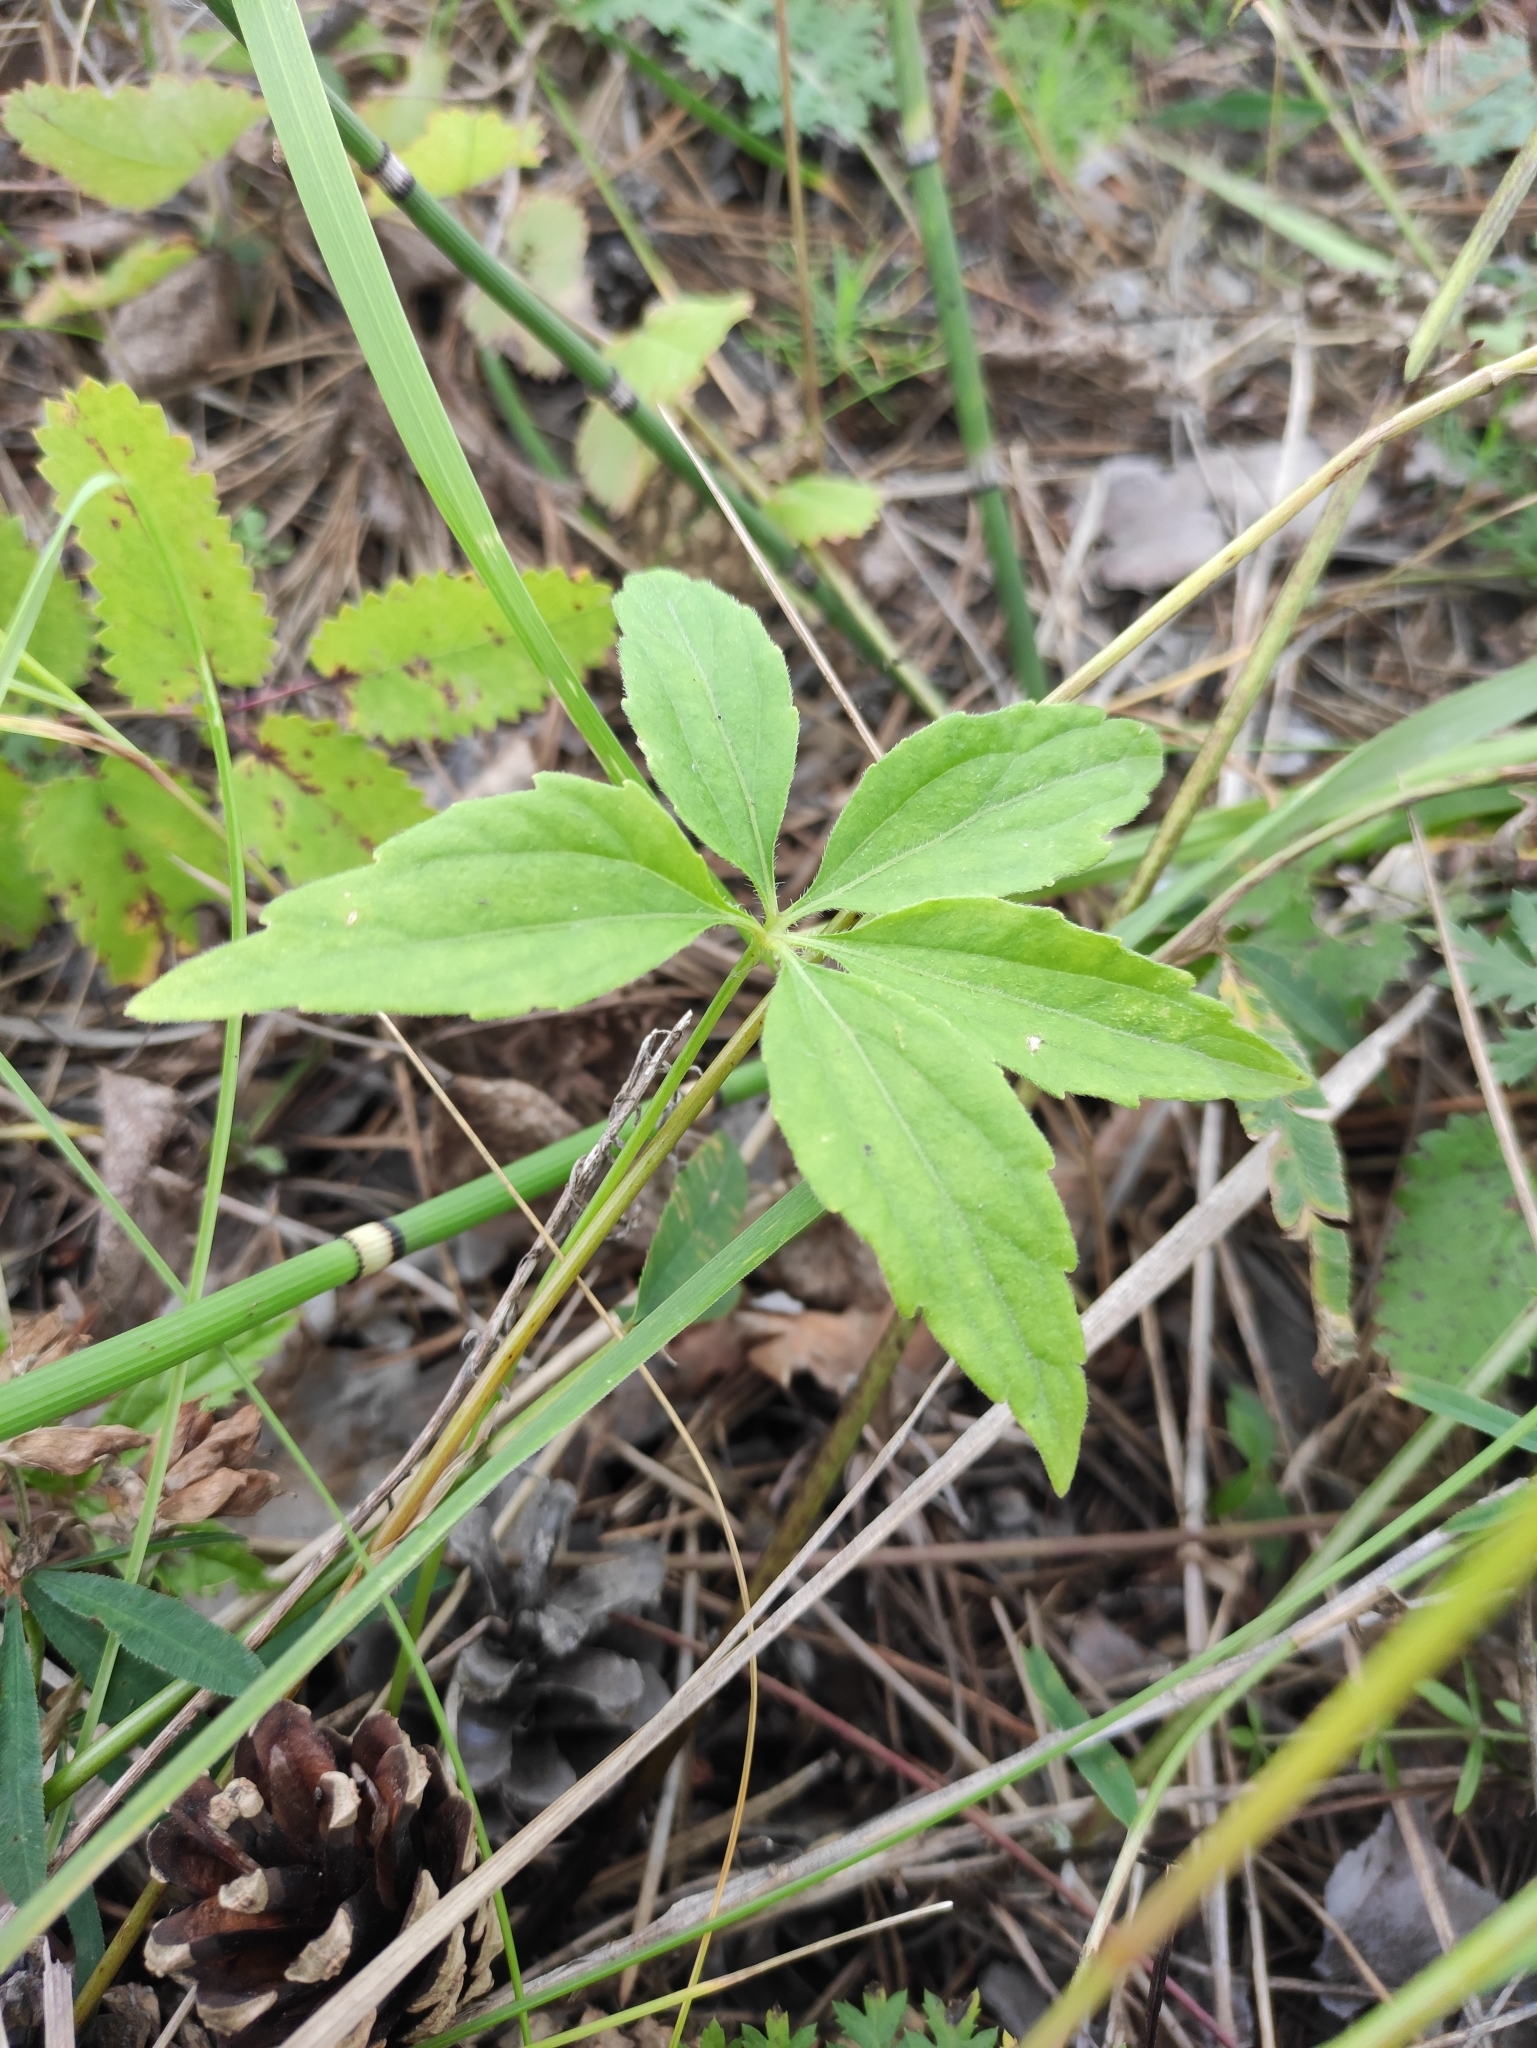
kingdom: Plantae
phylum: Tracheophyta
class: Magnoliopsida
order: Malpighiales
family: Violaceae
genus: Viola
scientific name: Viola dactyloides
